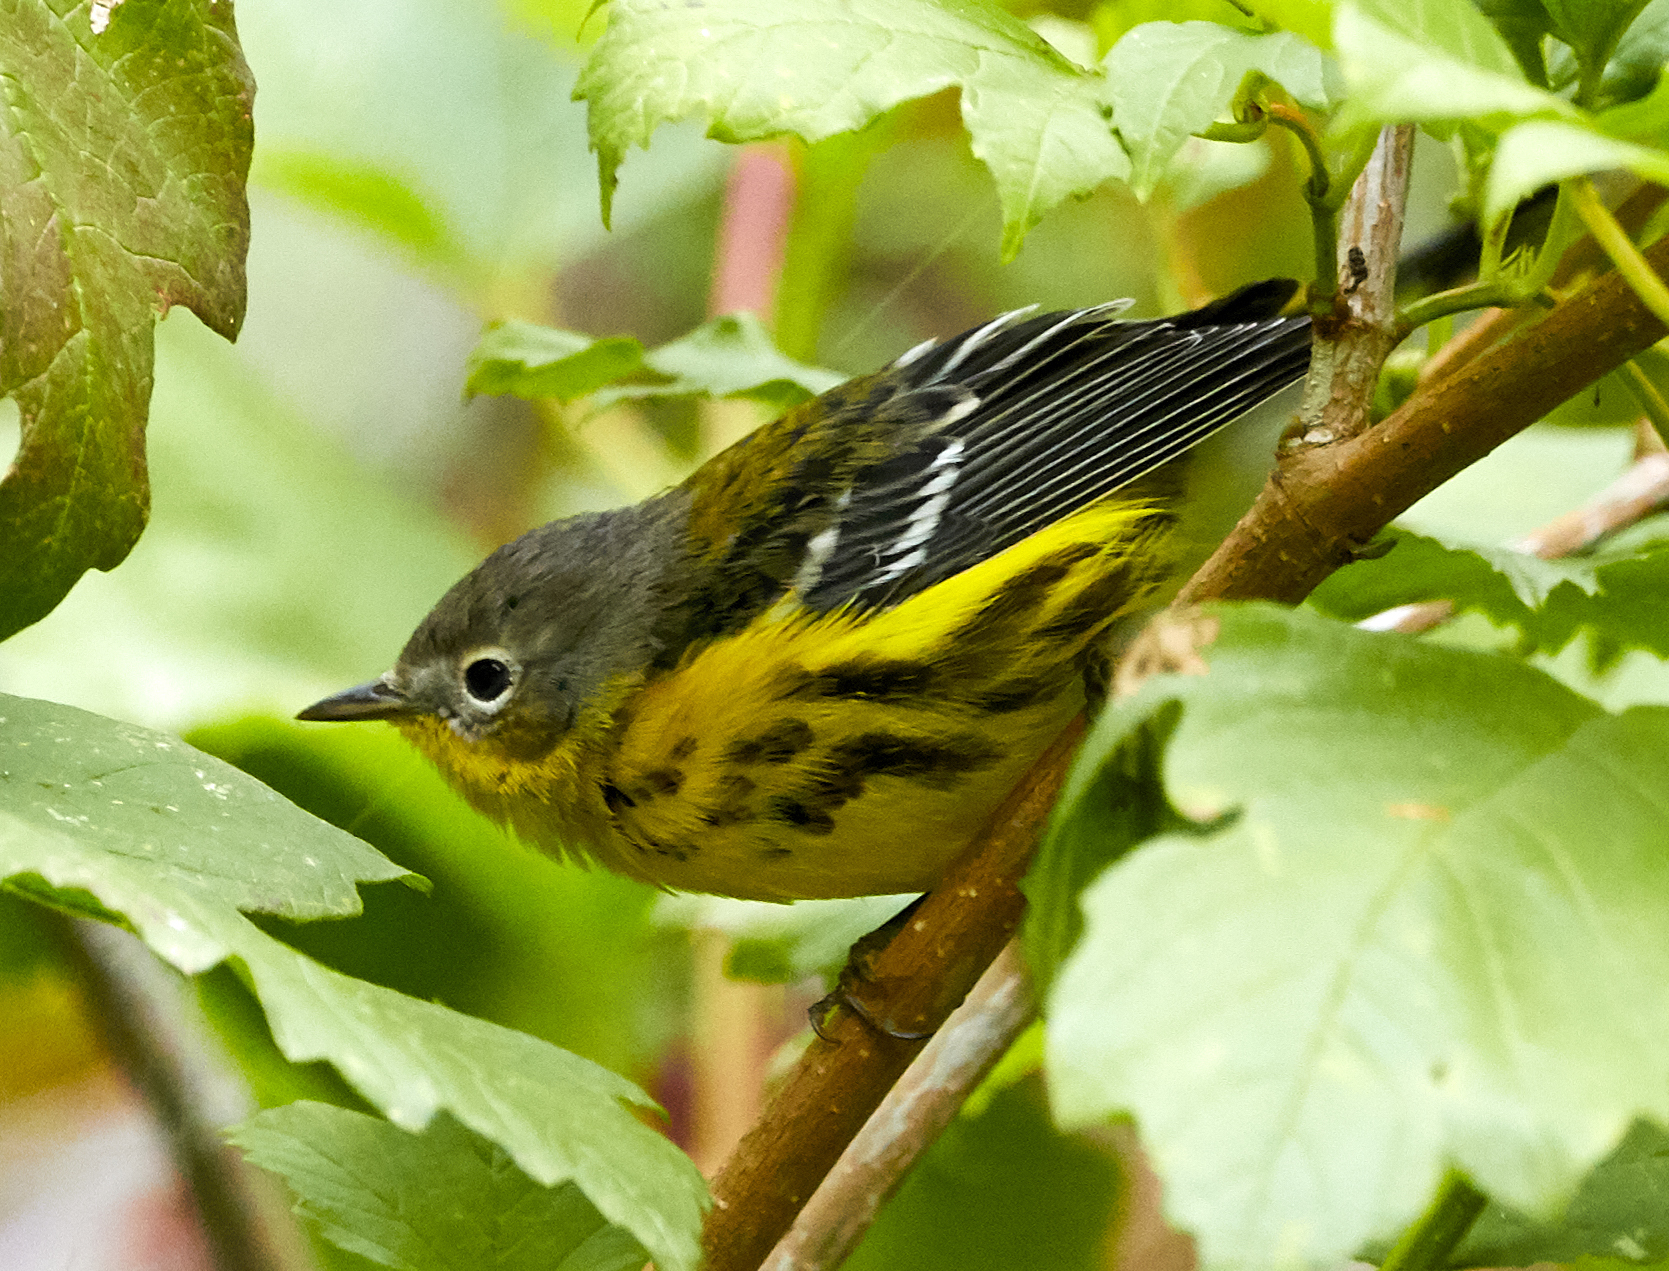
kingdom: Animalia
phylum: Chordata
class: Aves
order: Passeriformes
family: Parulidae
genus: Setophaga
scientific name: Setophaga magnolia
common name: Magnolia warbler
